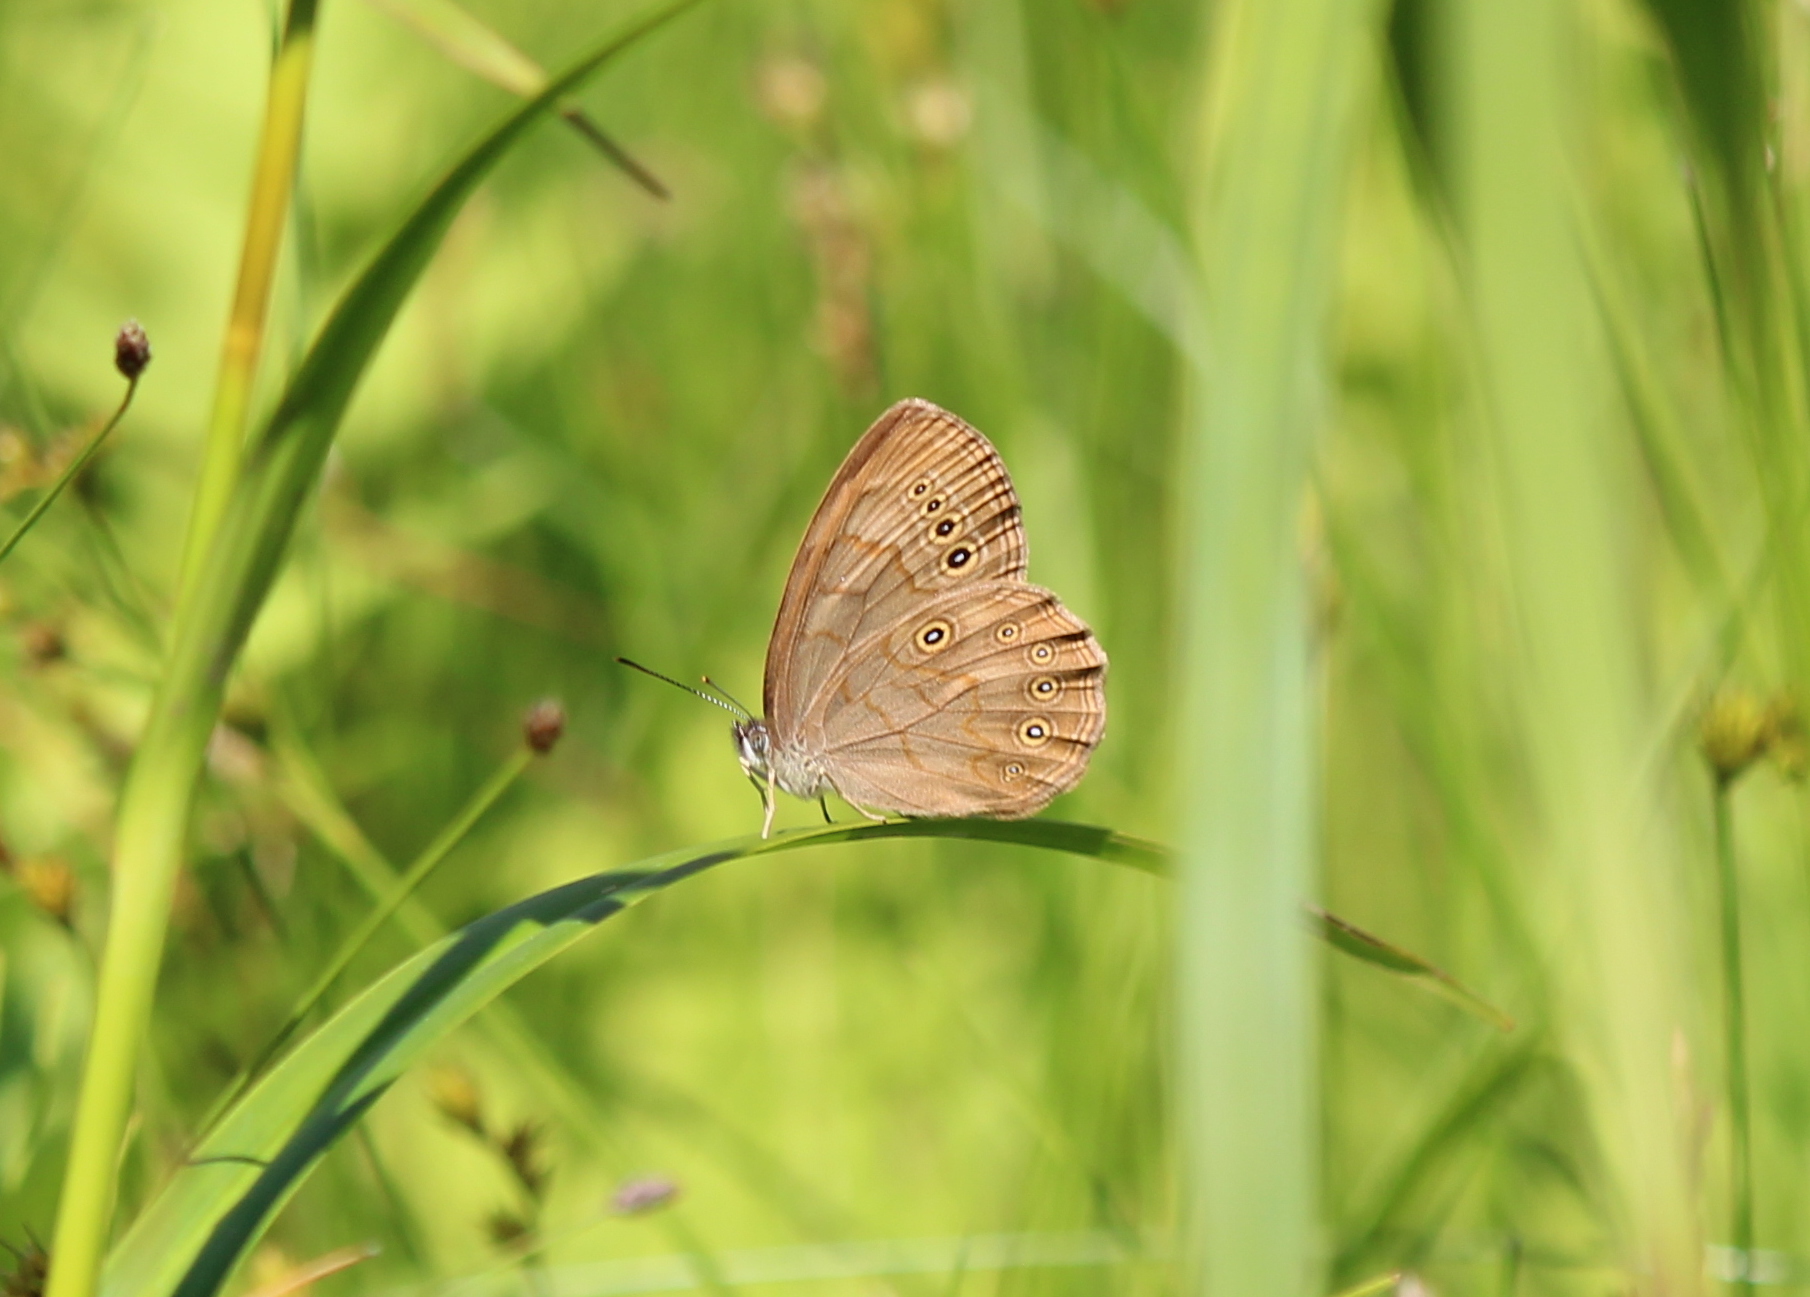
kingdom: Animalia
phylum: Arthropoda
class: Insecta
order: Lepidoptera
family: Nymphalidae
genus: Lethe
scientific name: Lethe eurydice
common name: Eyed brown
